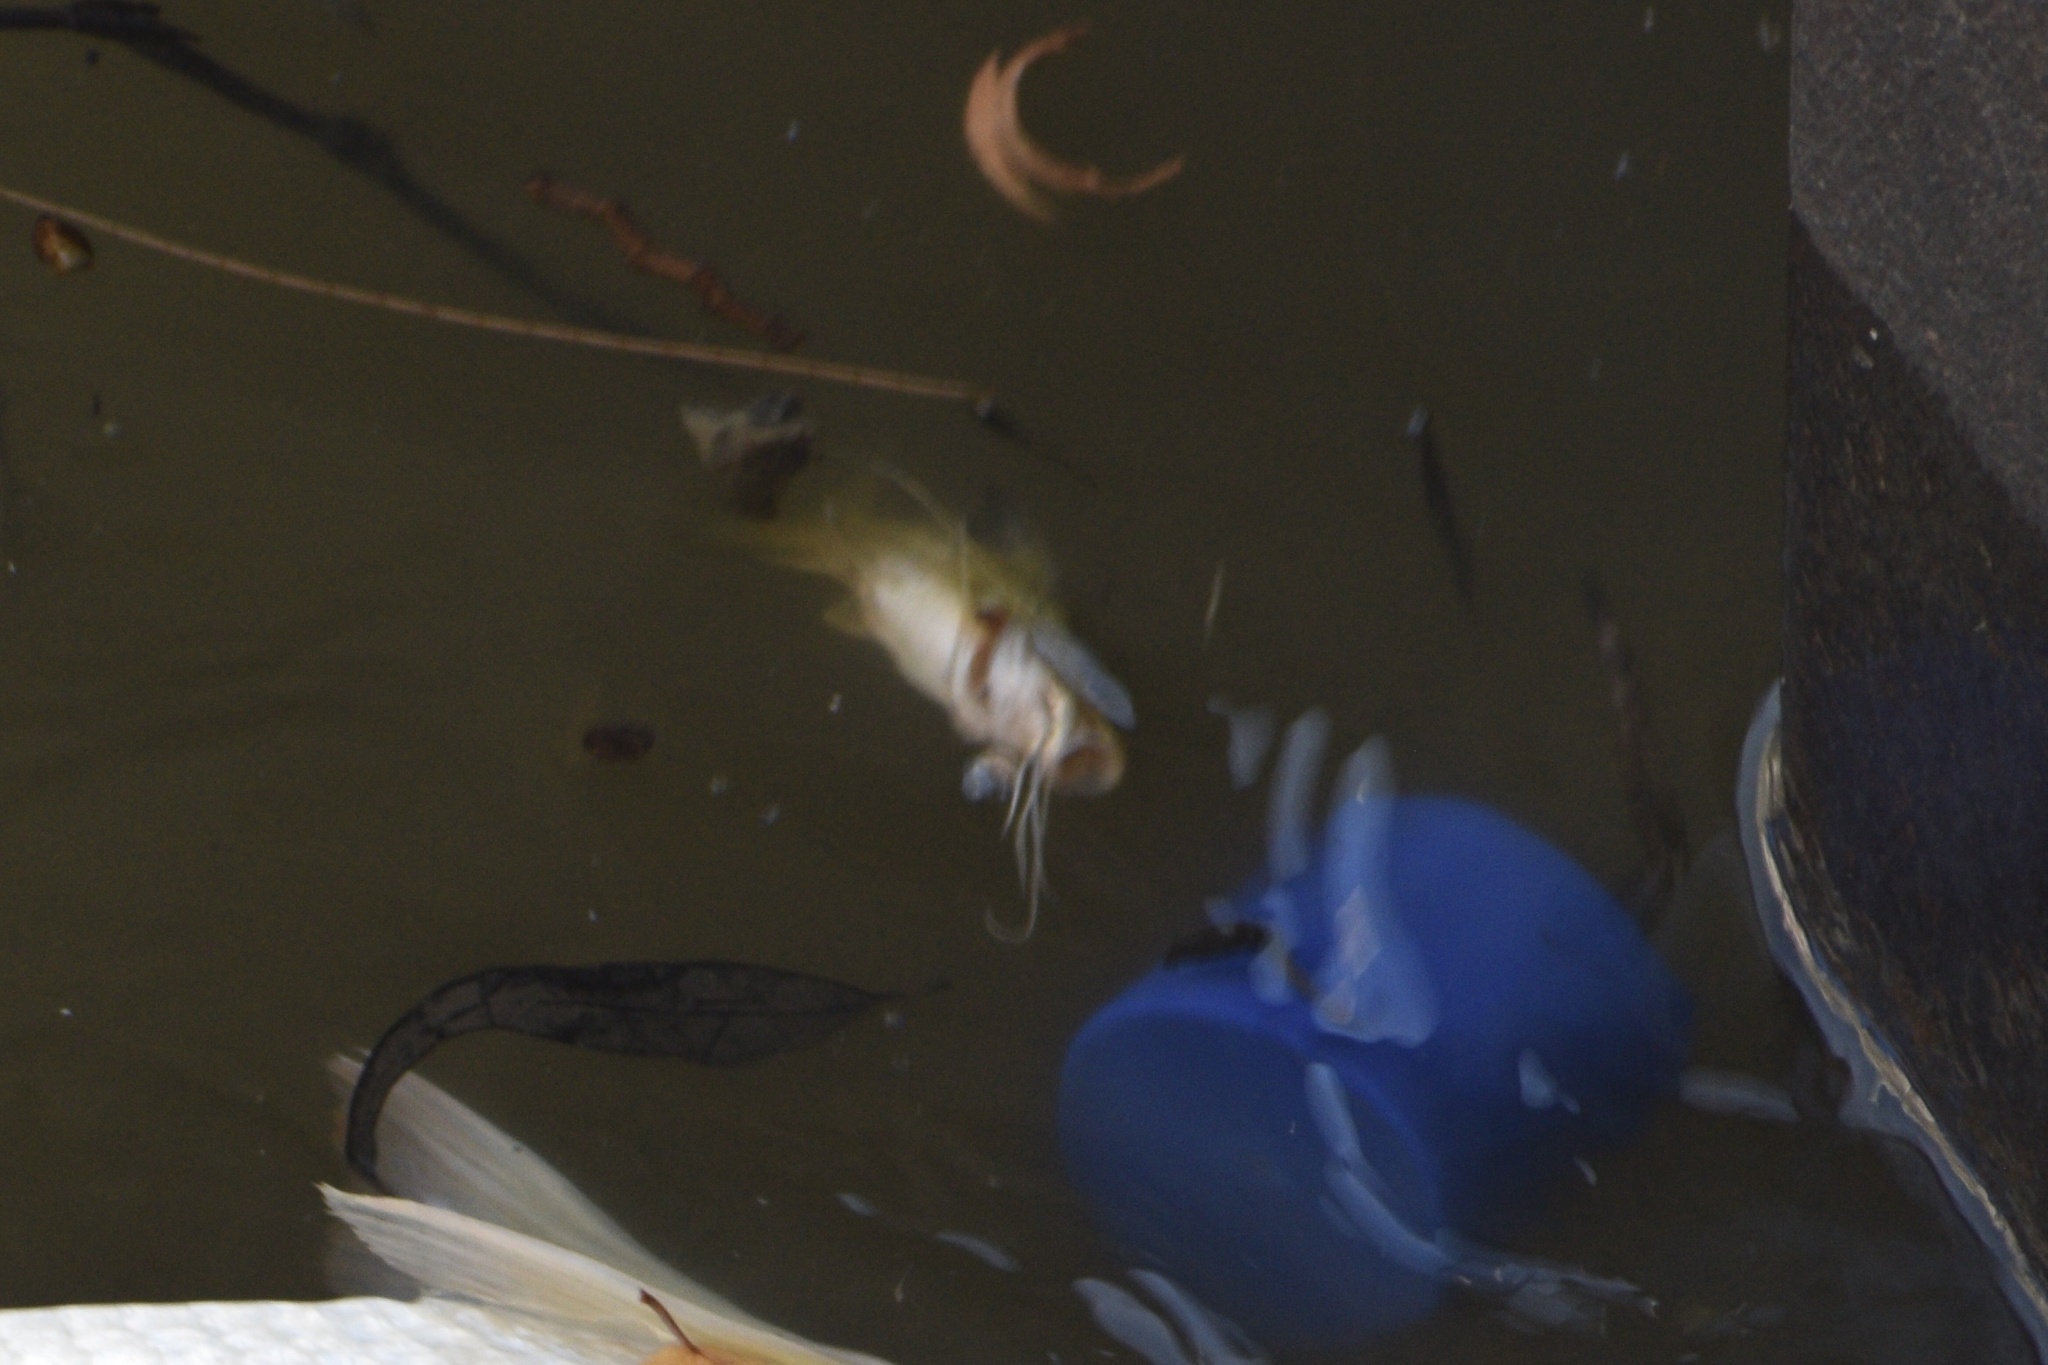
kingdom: Animalia
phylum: Chordata
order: Siluriformes
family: Pimelodidae
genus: Pimelodus
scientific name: Pimelodus maculatus
